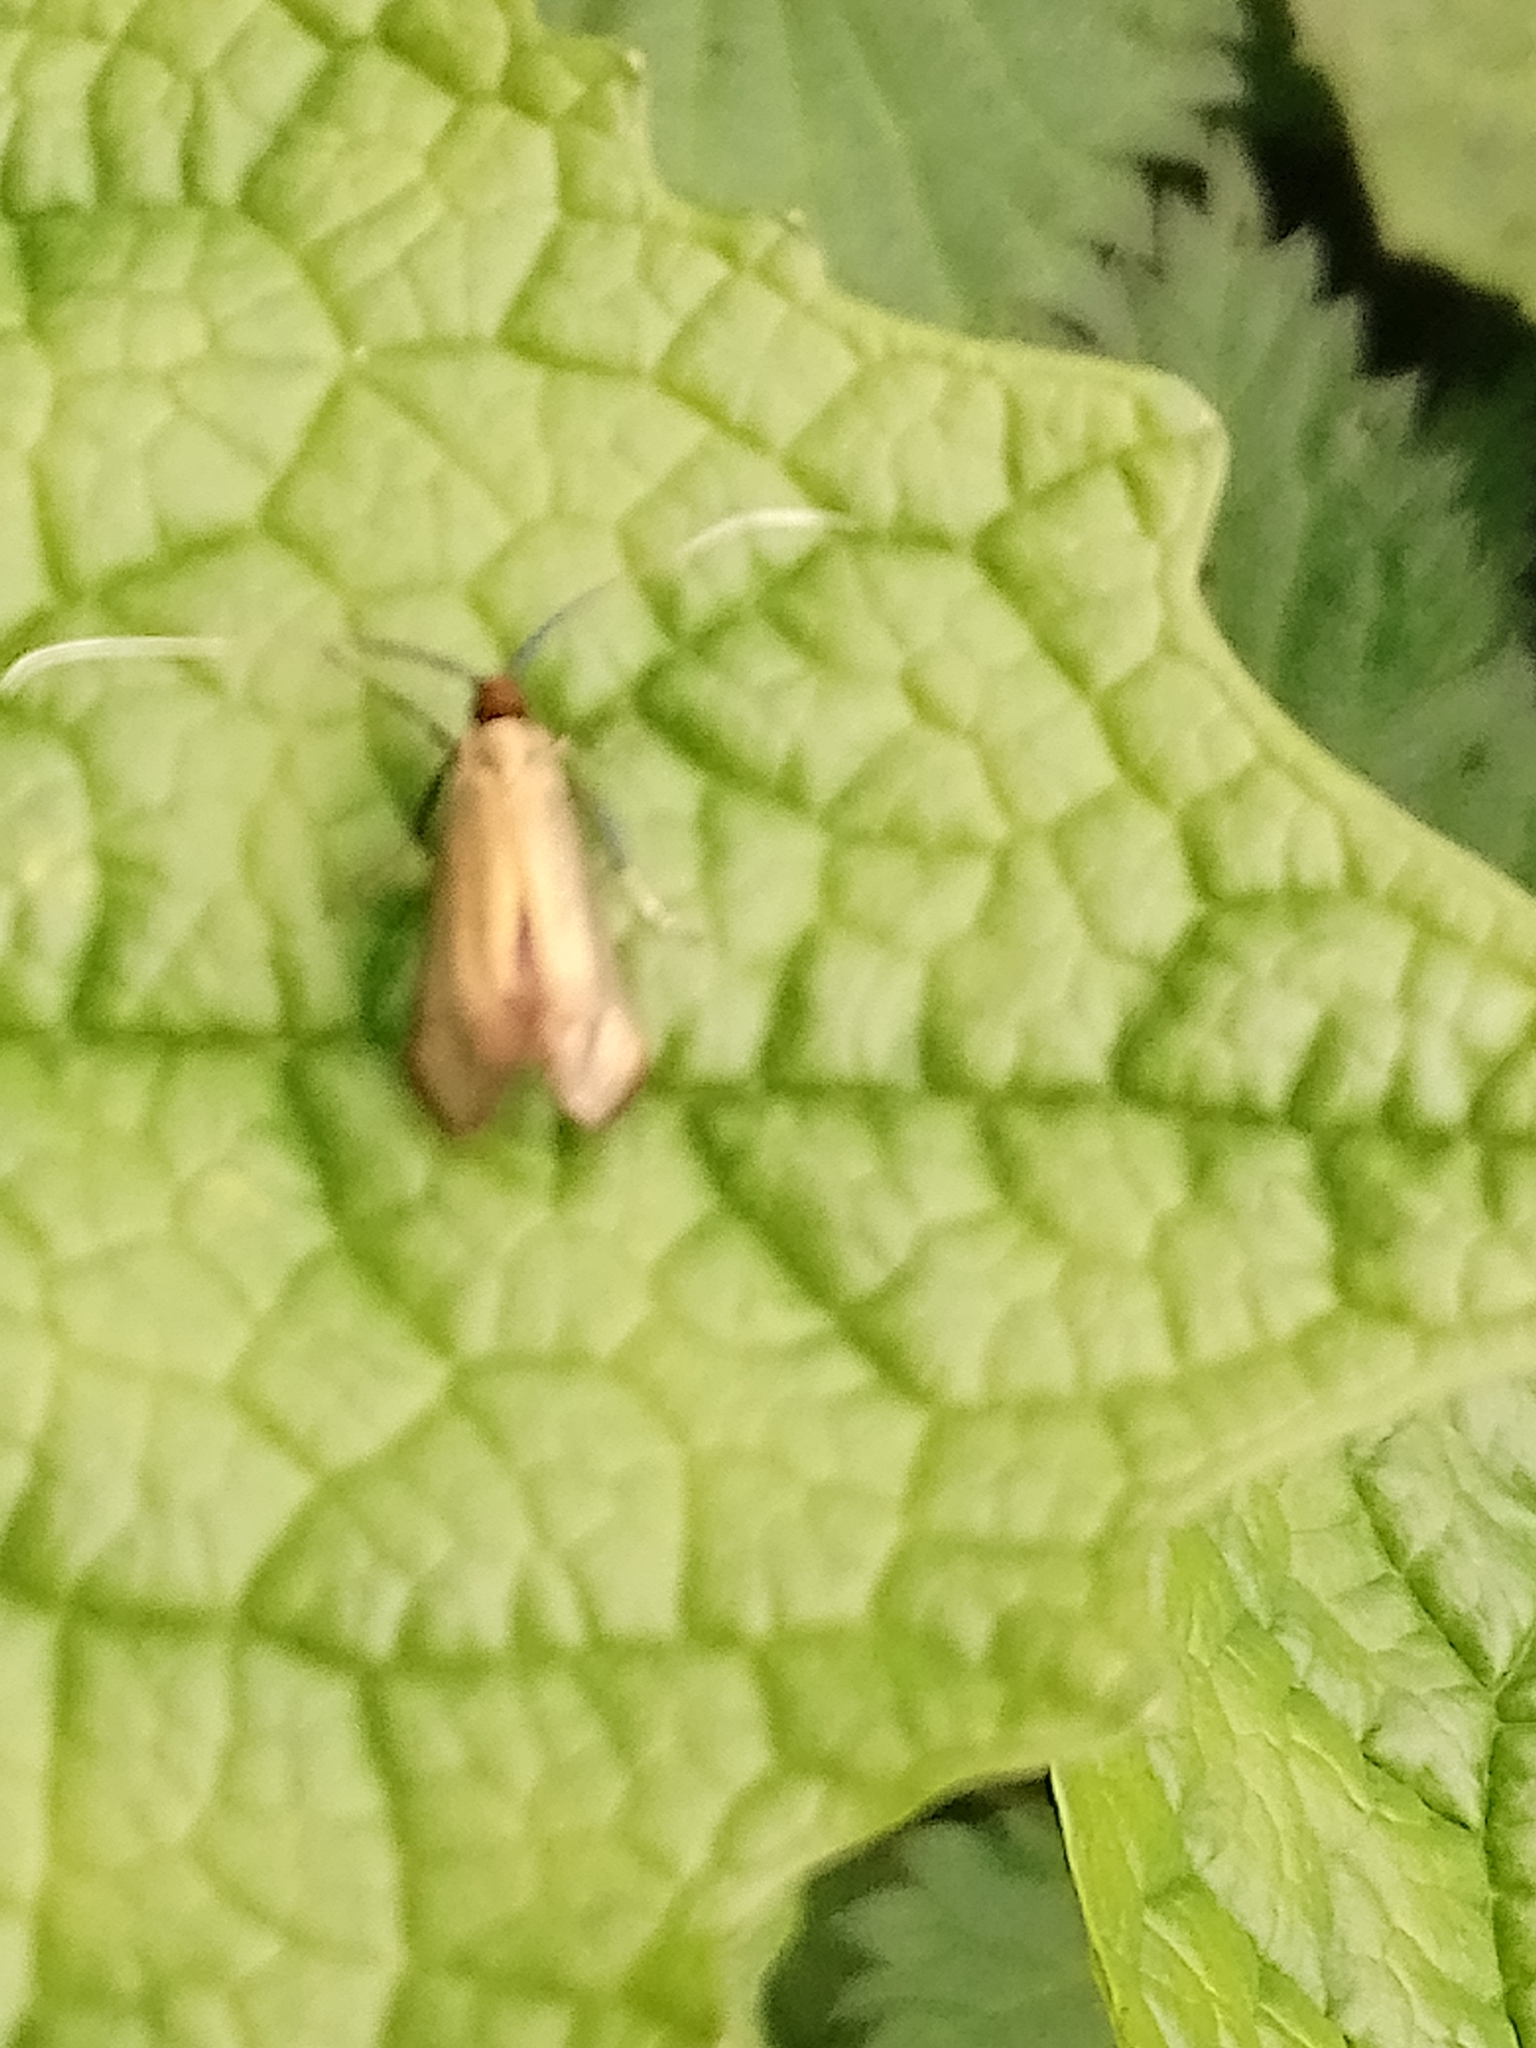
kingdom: Animalia
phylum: Arthropoda
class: Insecta
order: Lepidoptera
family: Adelidae
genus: Adela
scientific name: Adela viridella
